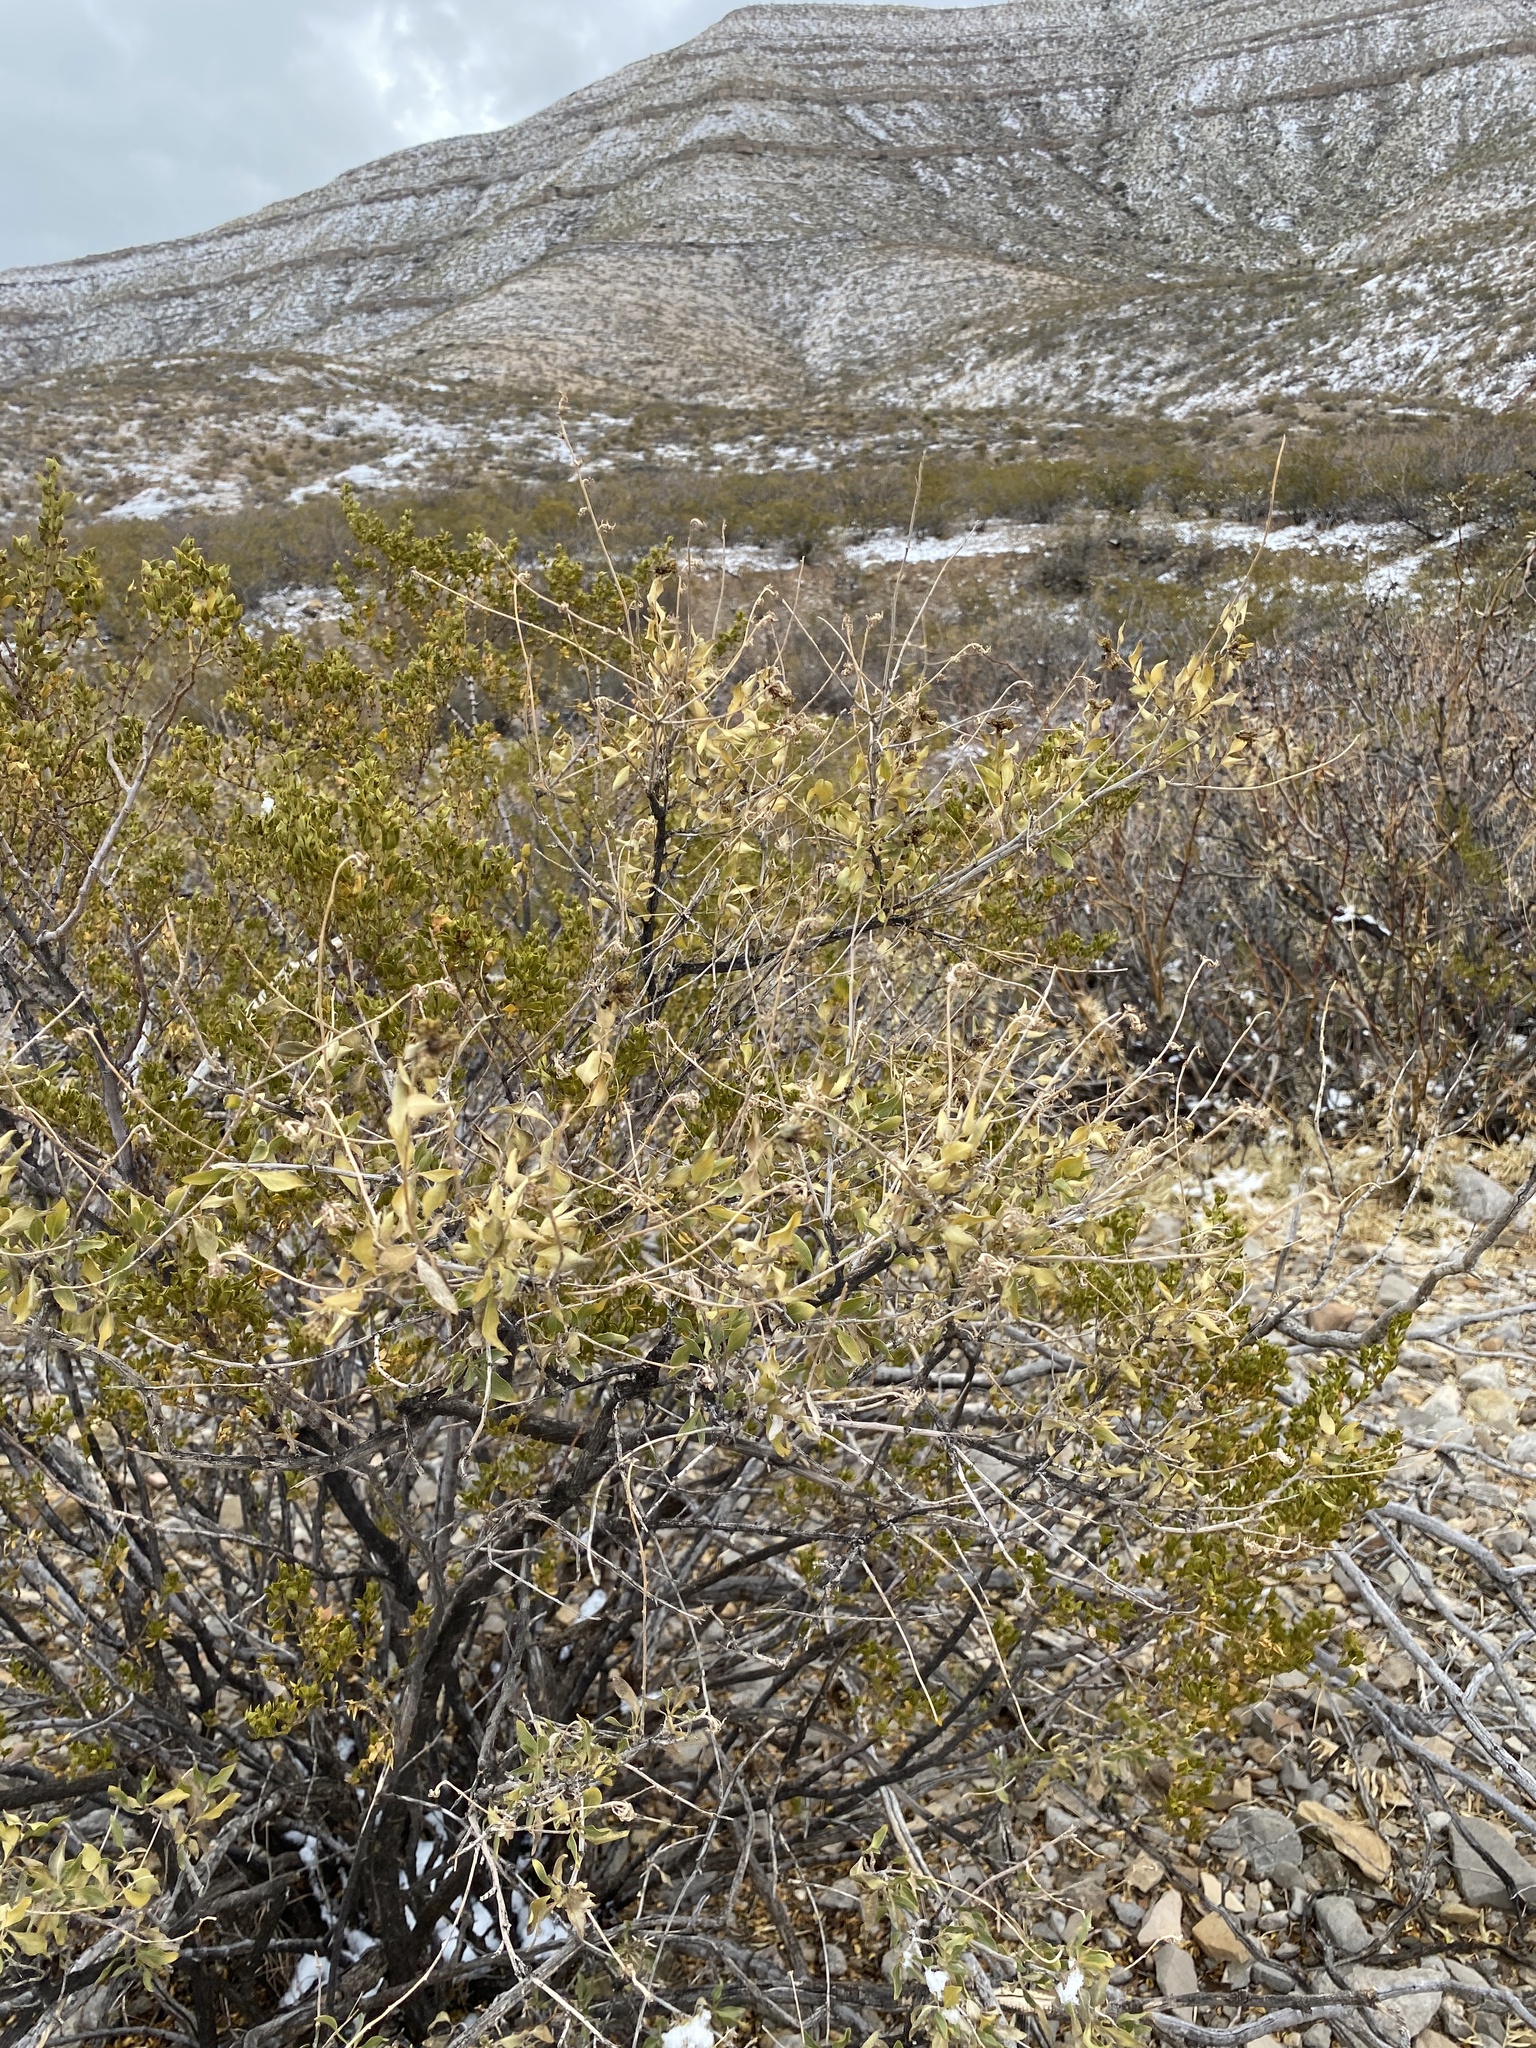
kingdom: Plantae
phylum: Tracheophyta
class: Magnoliopsida
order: Asterales
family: Asteraceae
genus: Flourensia
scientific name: Flourensia cernua
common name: Varnishbush
